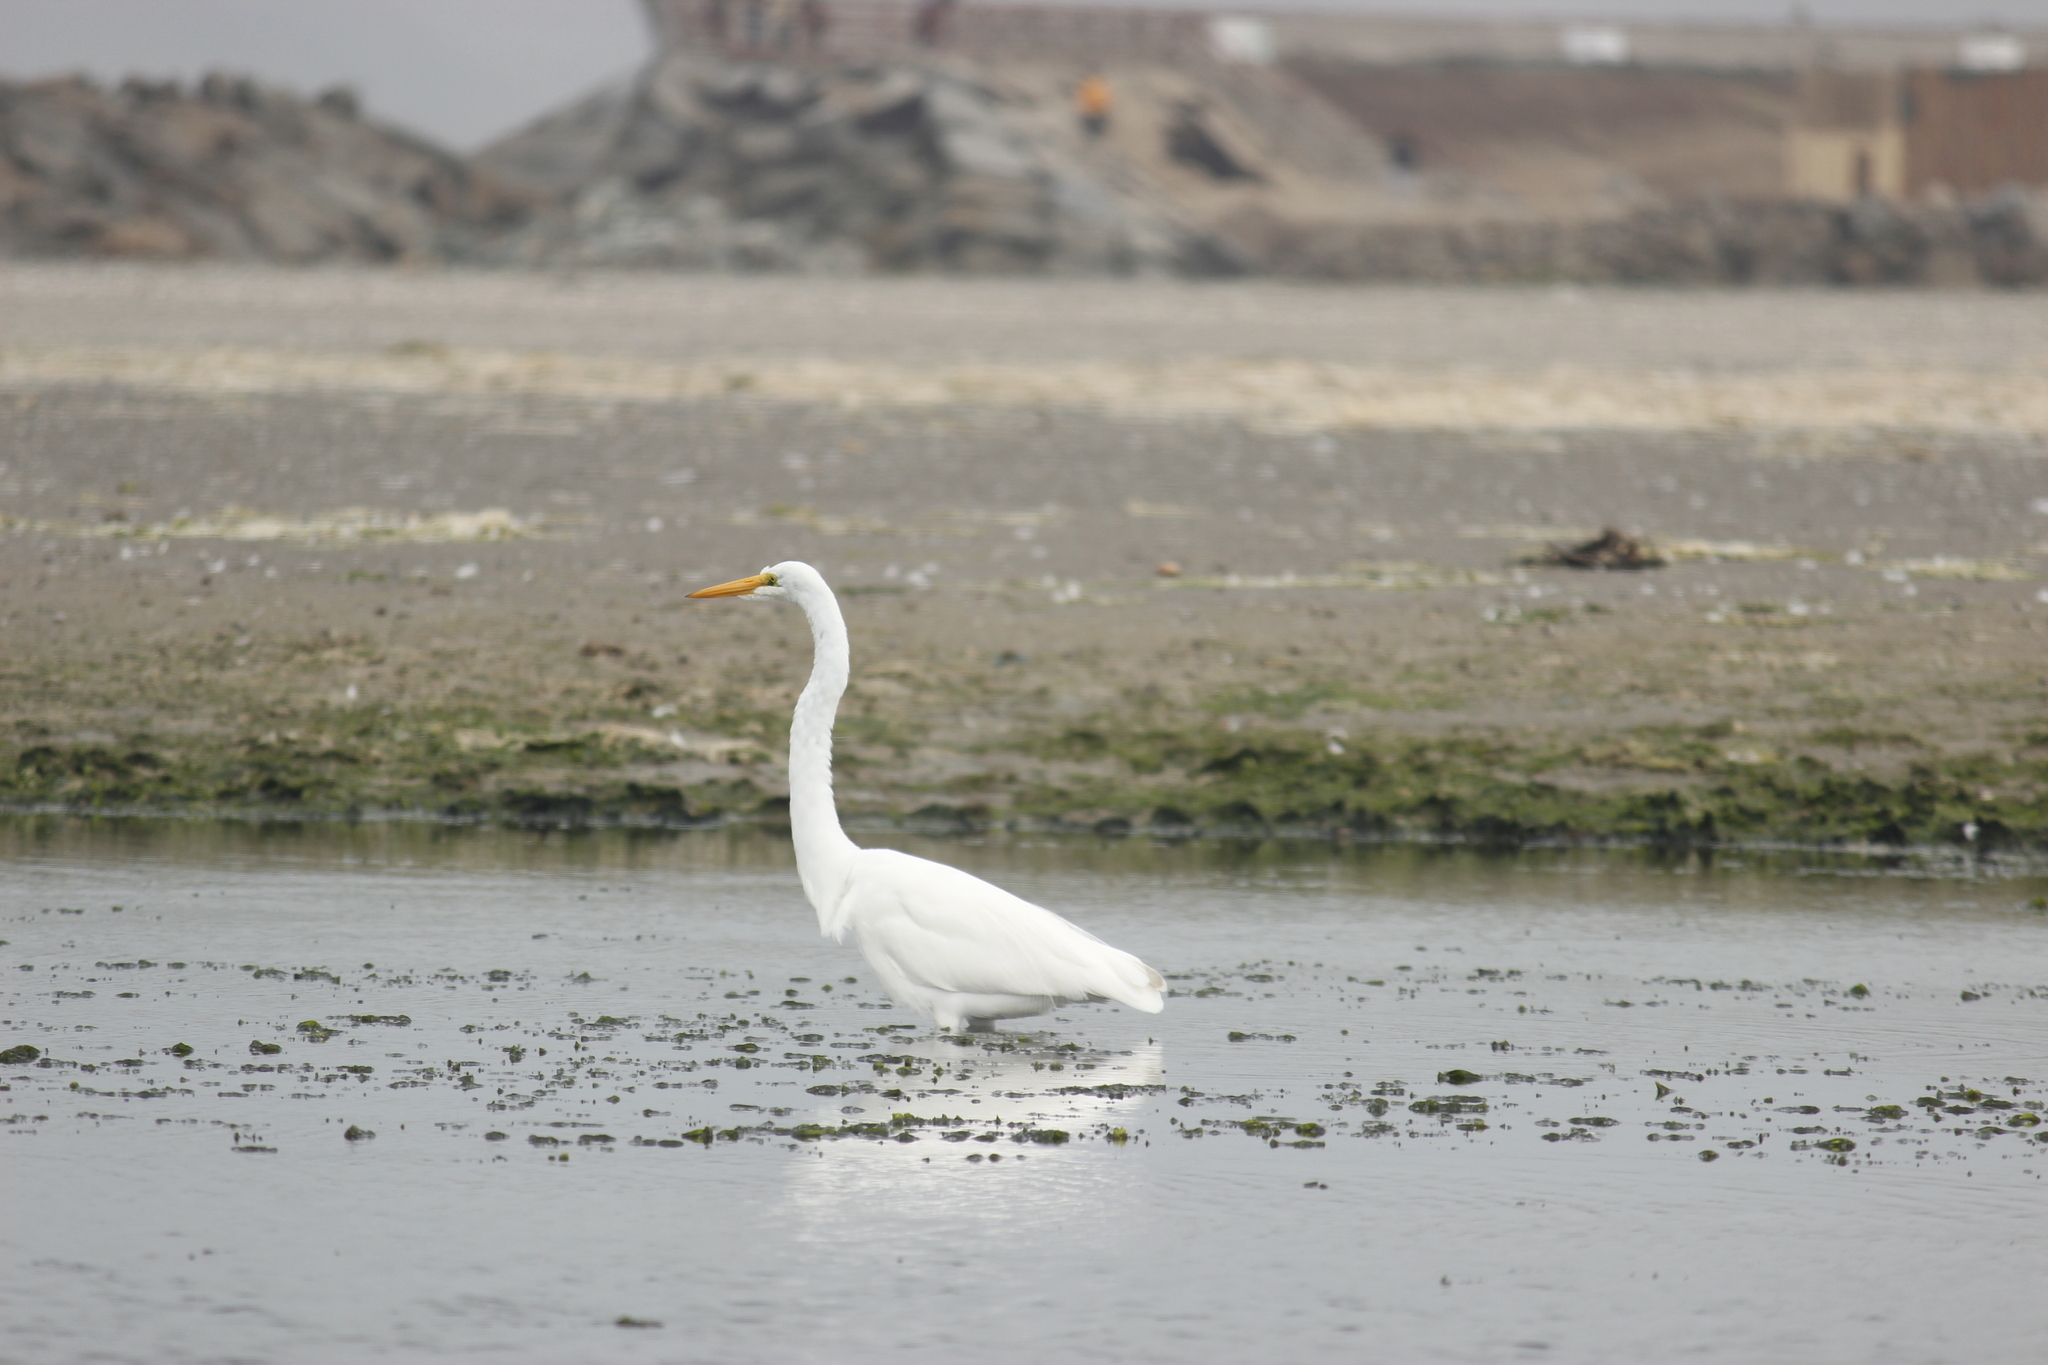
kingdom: Animalia
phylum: Chordata
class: Aves
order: Pelecaniformes
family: Ardeidae
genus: Ardea
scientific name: Ardea alba
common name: Great egret
